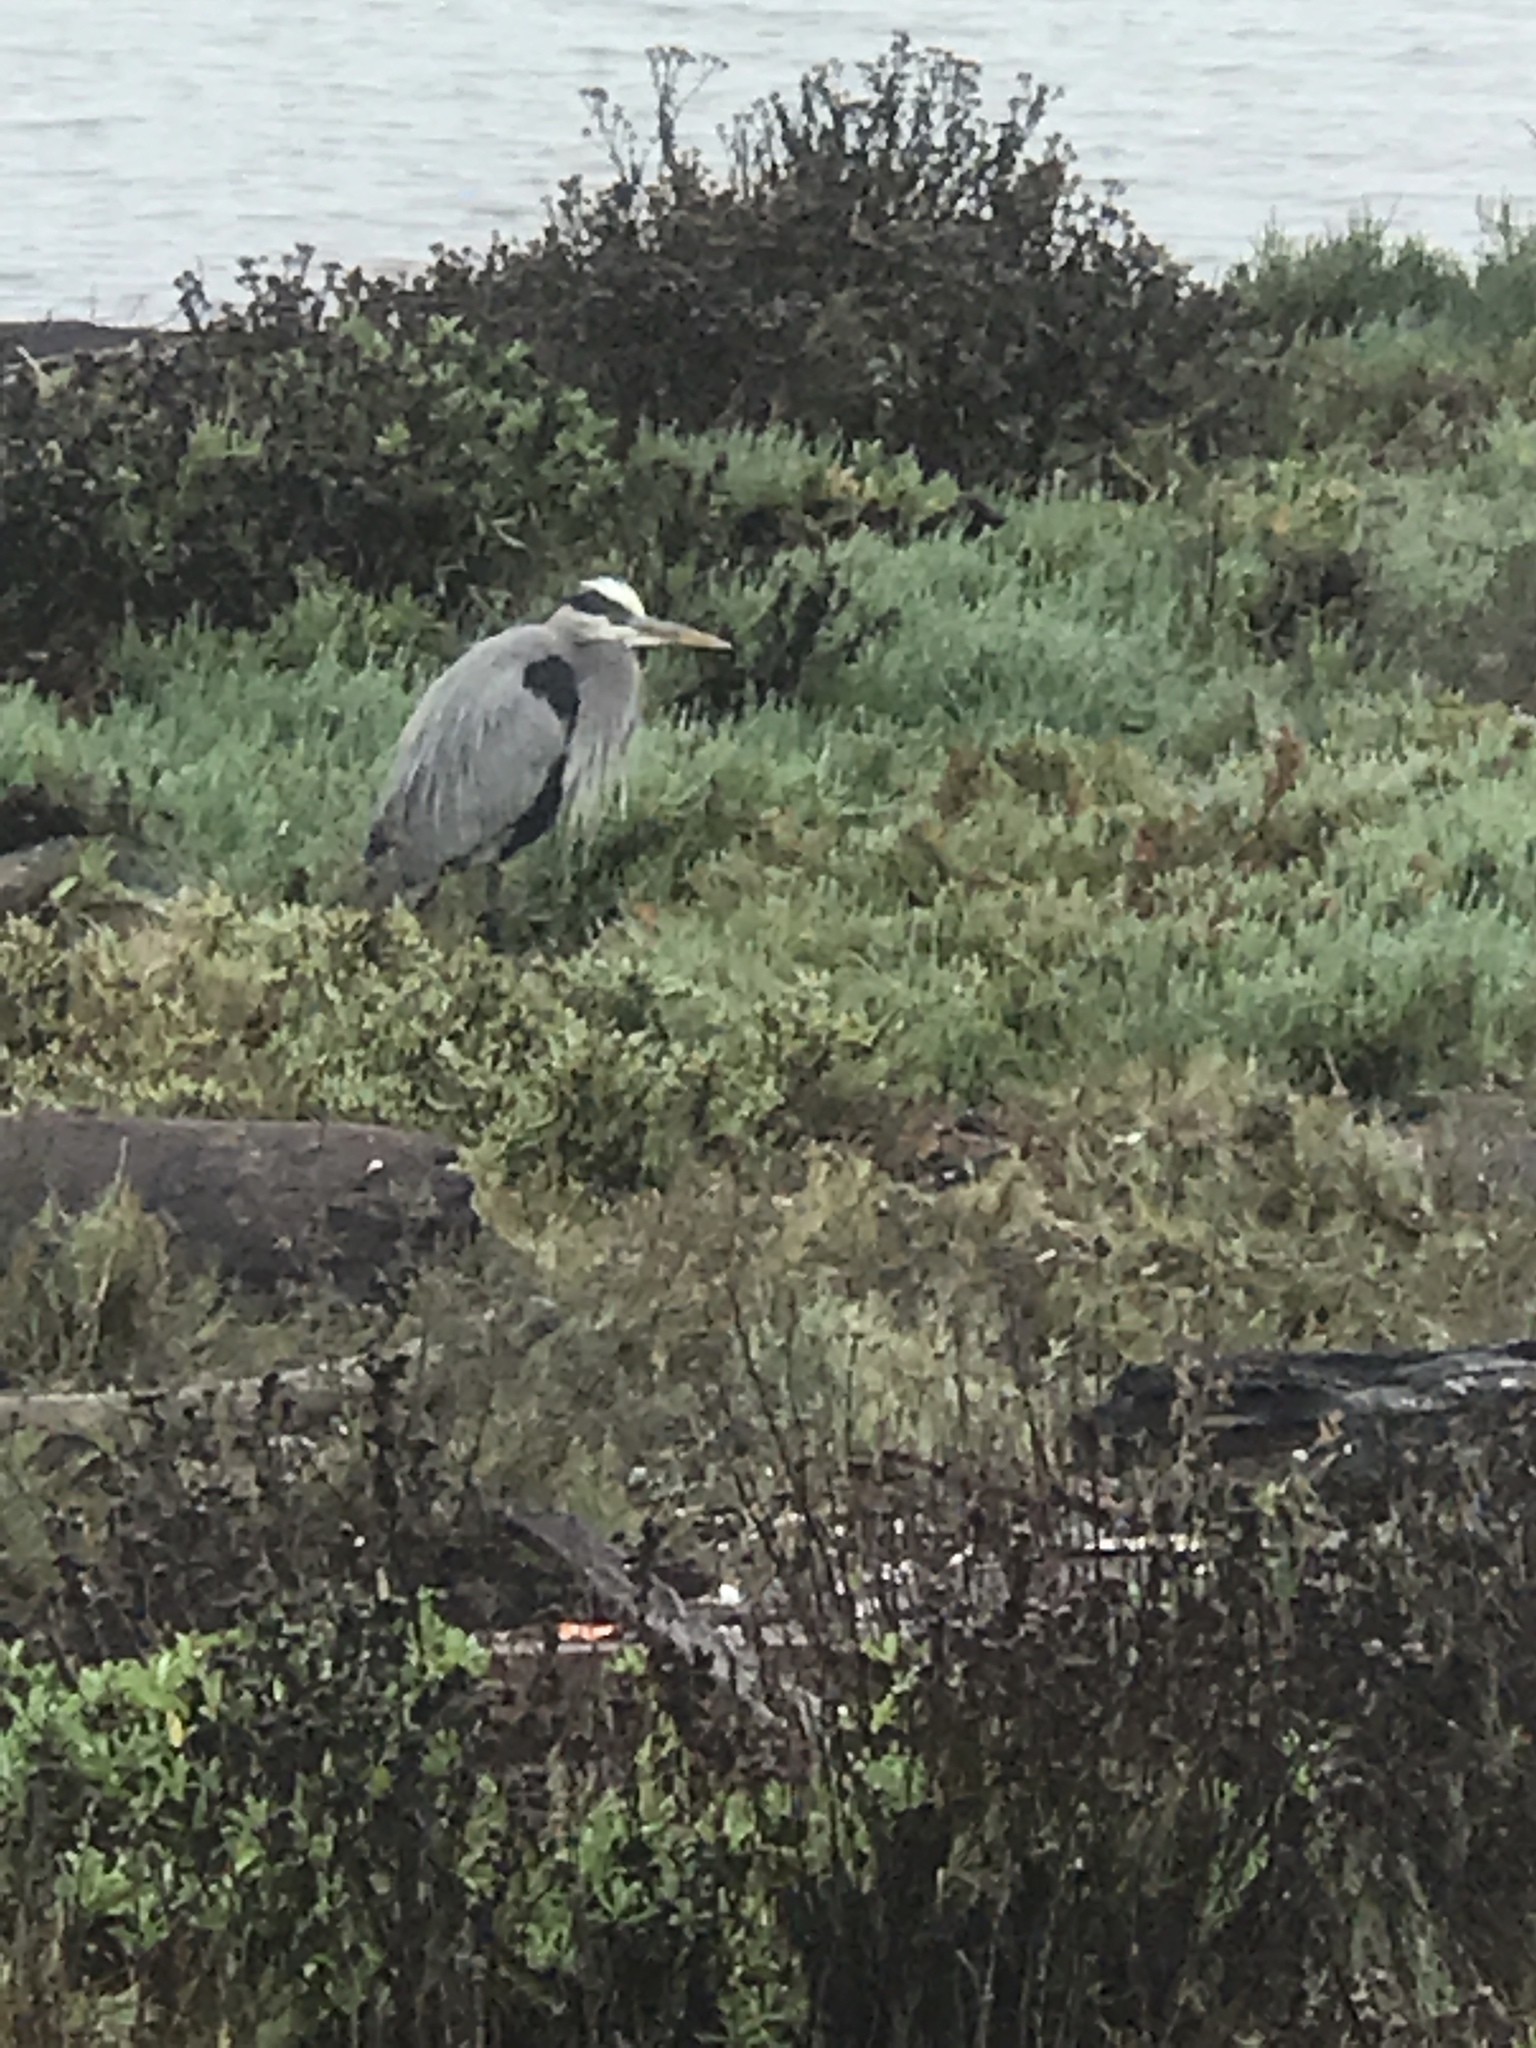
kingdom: Animalia
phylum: Chordata
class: Aves
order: Pelecaniformes
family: Ardeidae
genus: Ardea
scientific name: Ardea herodias
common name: Great blue heron
